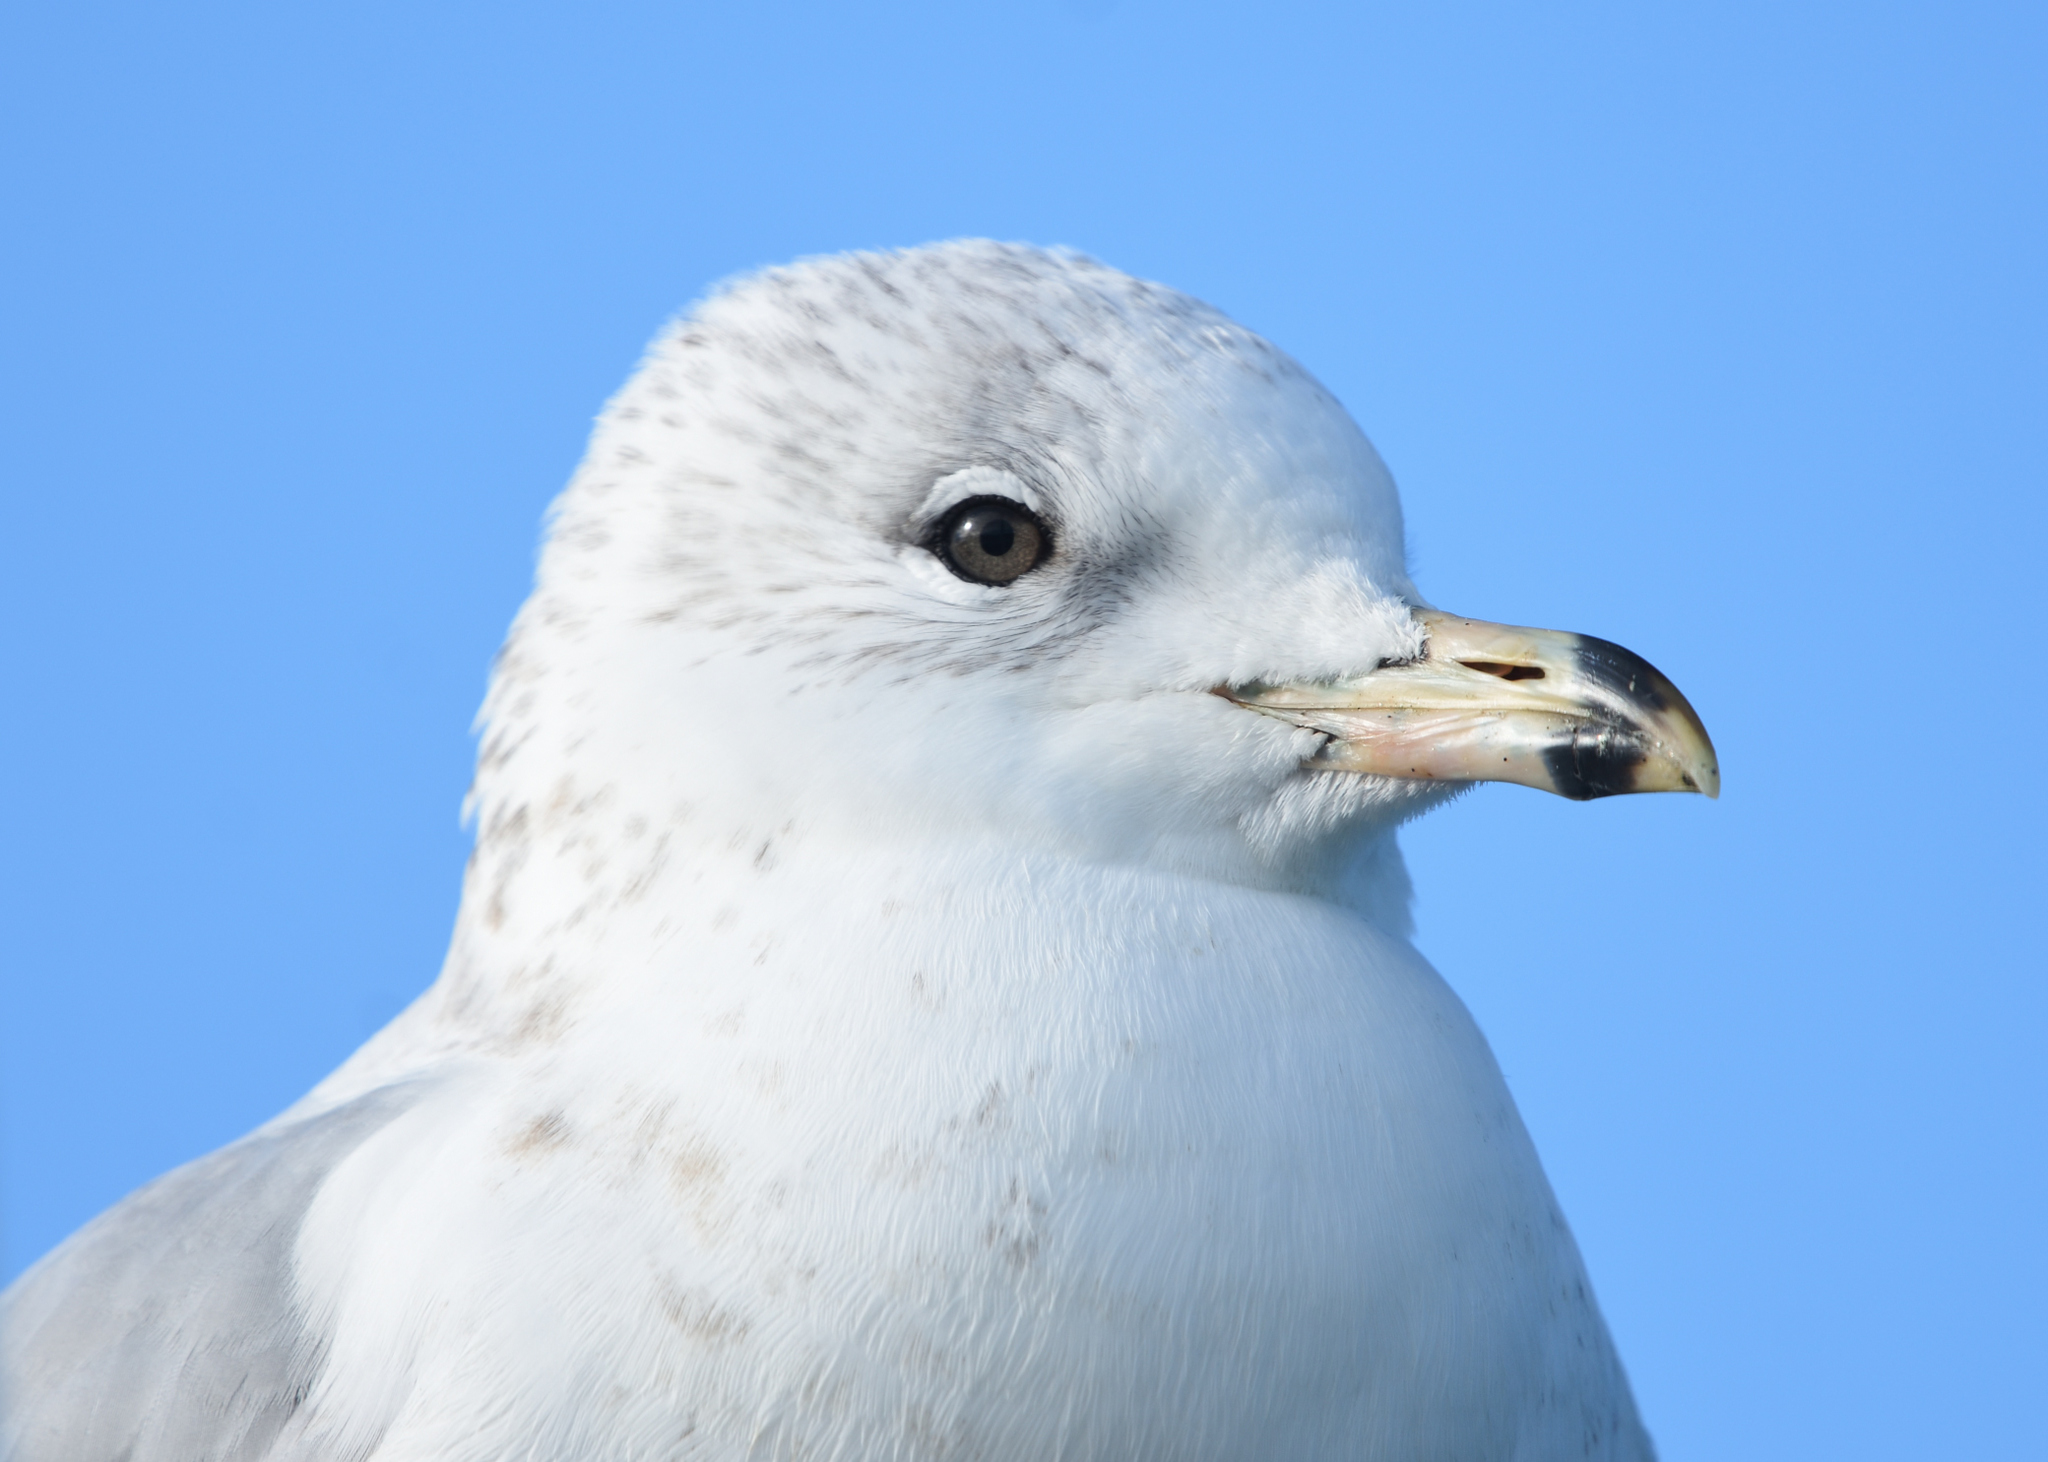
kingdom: Animalia
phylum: Chordata
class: Aves
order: Charadriiformes
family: Laridae
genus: Larus
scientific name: Larus delawarensis
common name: Ring-billed gull
